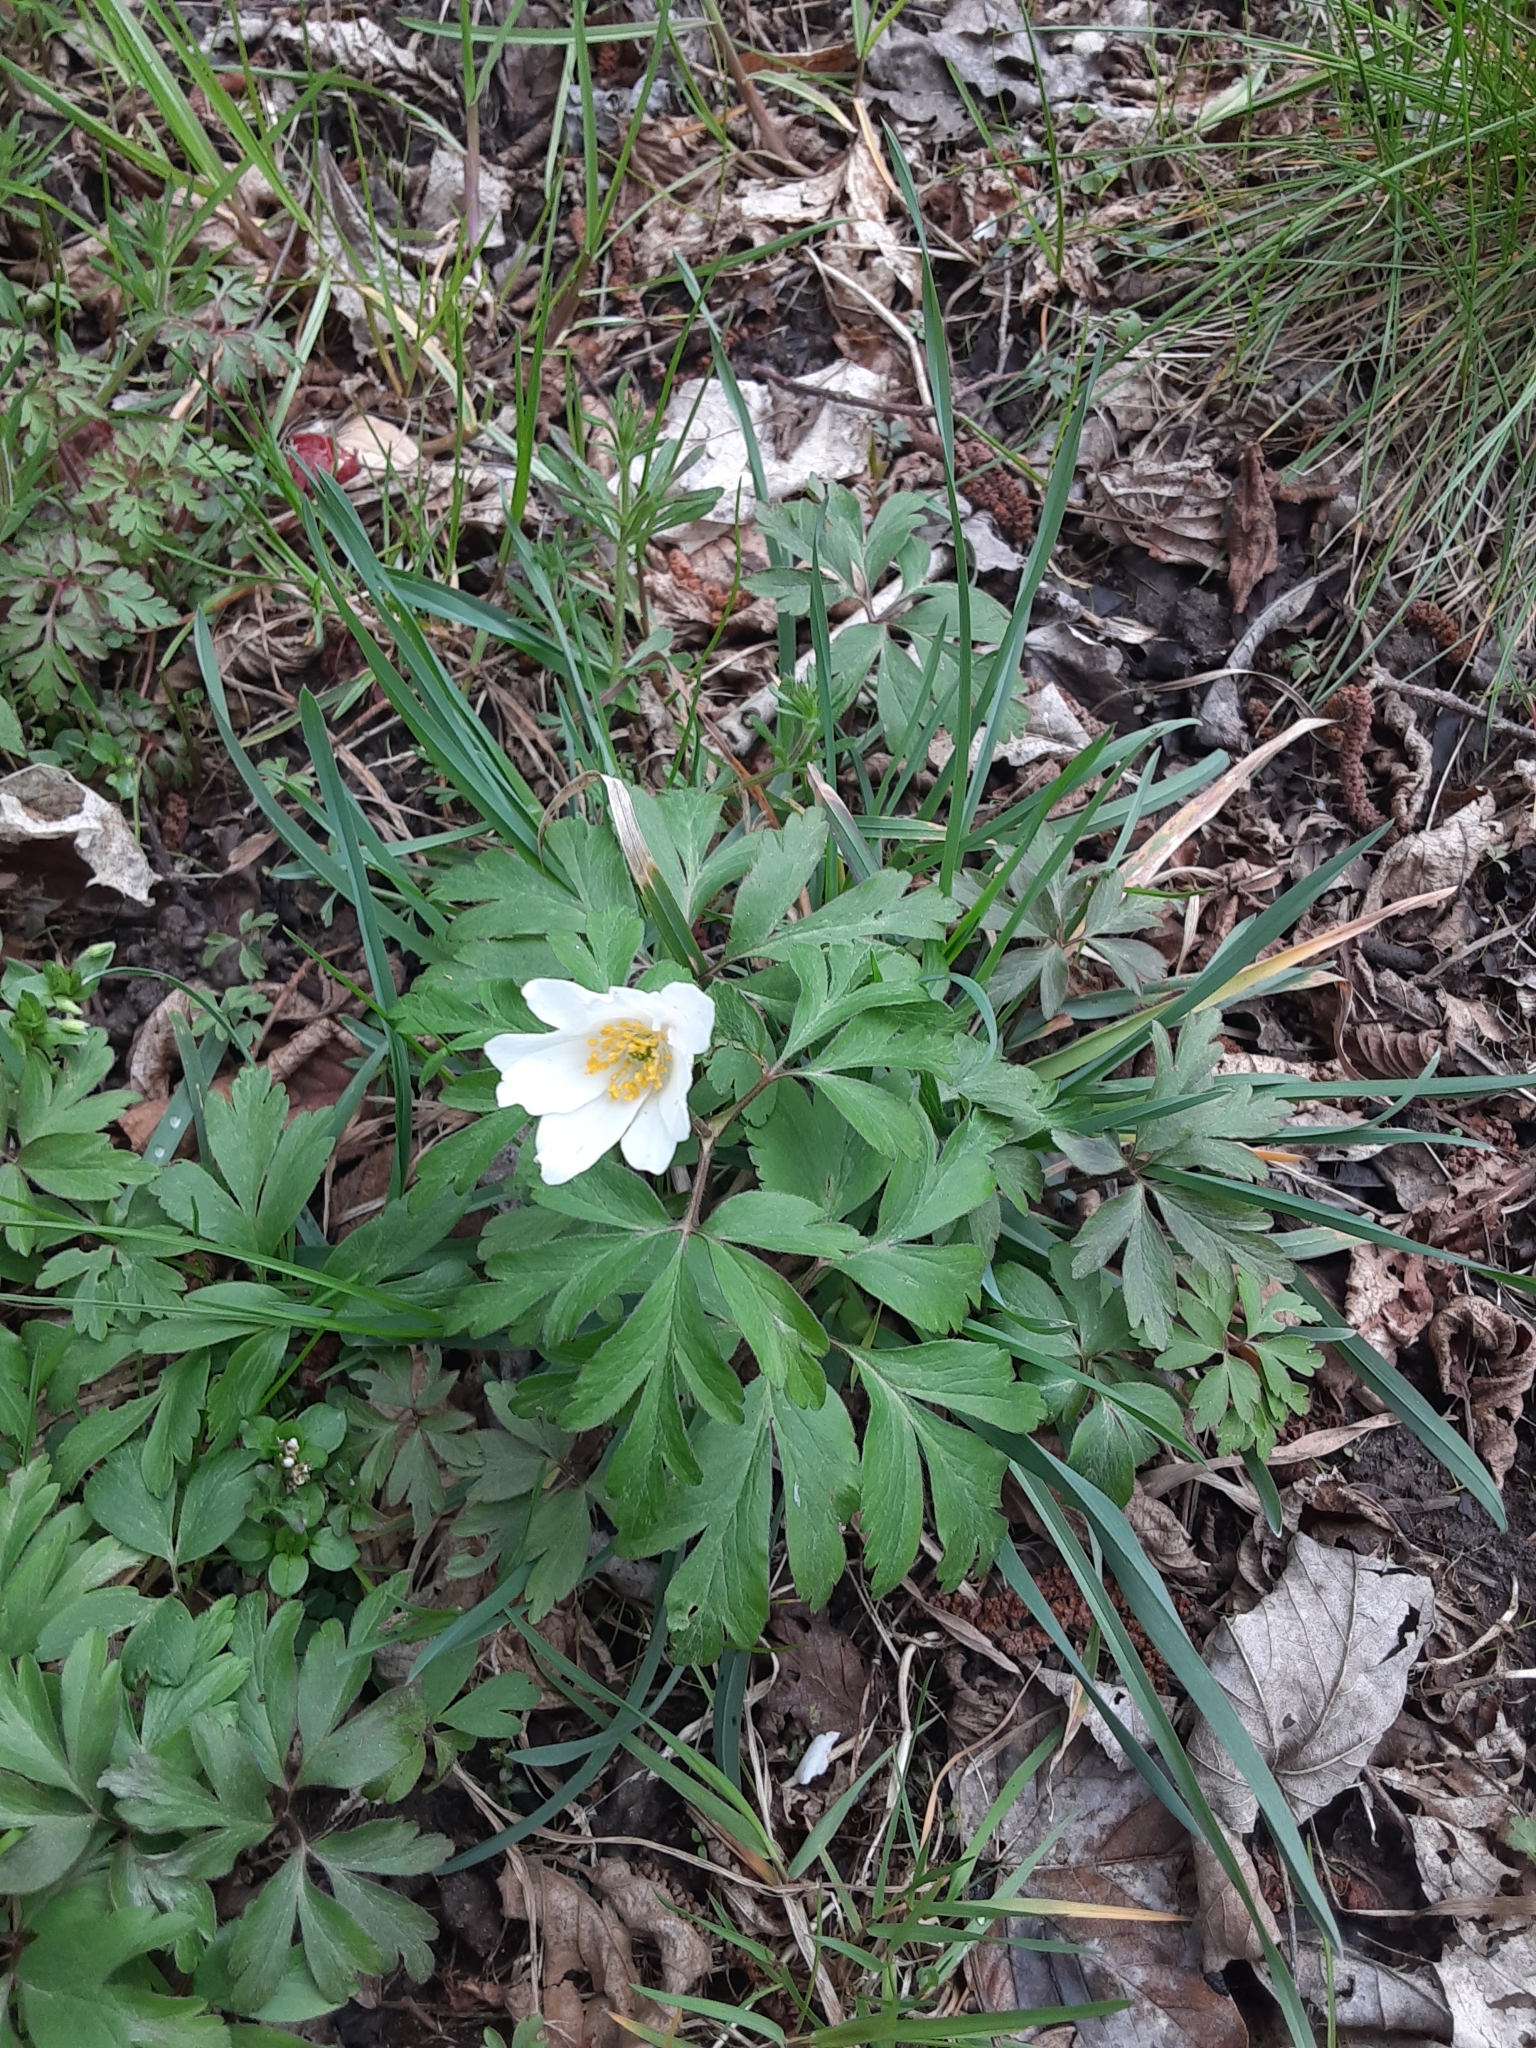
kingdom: Plantae
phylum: Tracheophyta
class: Magnoliopsida
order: Ranunculales
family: Ranunculaceae
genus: Anemone
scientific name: Anemone nemorosa
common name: Wood anemone
